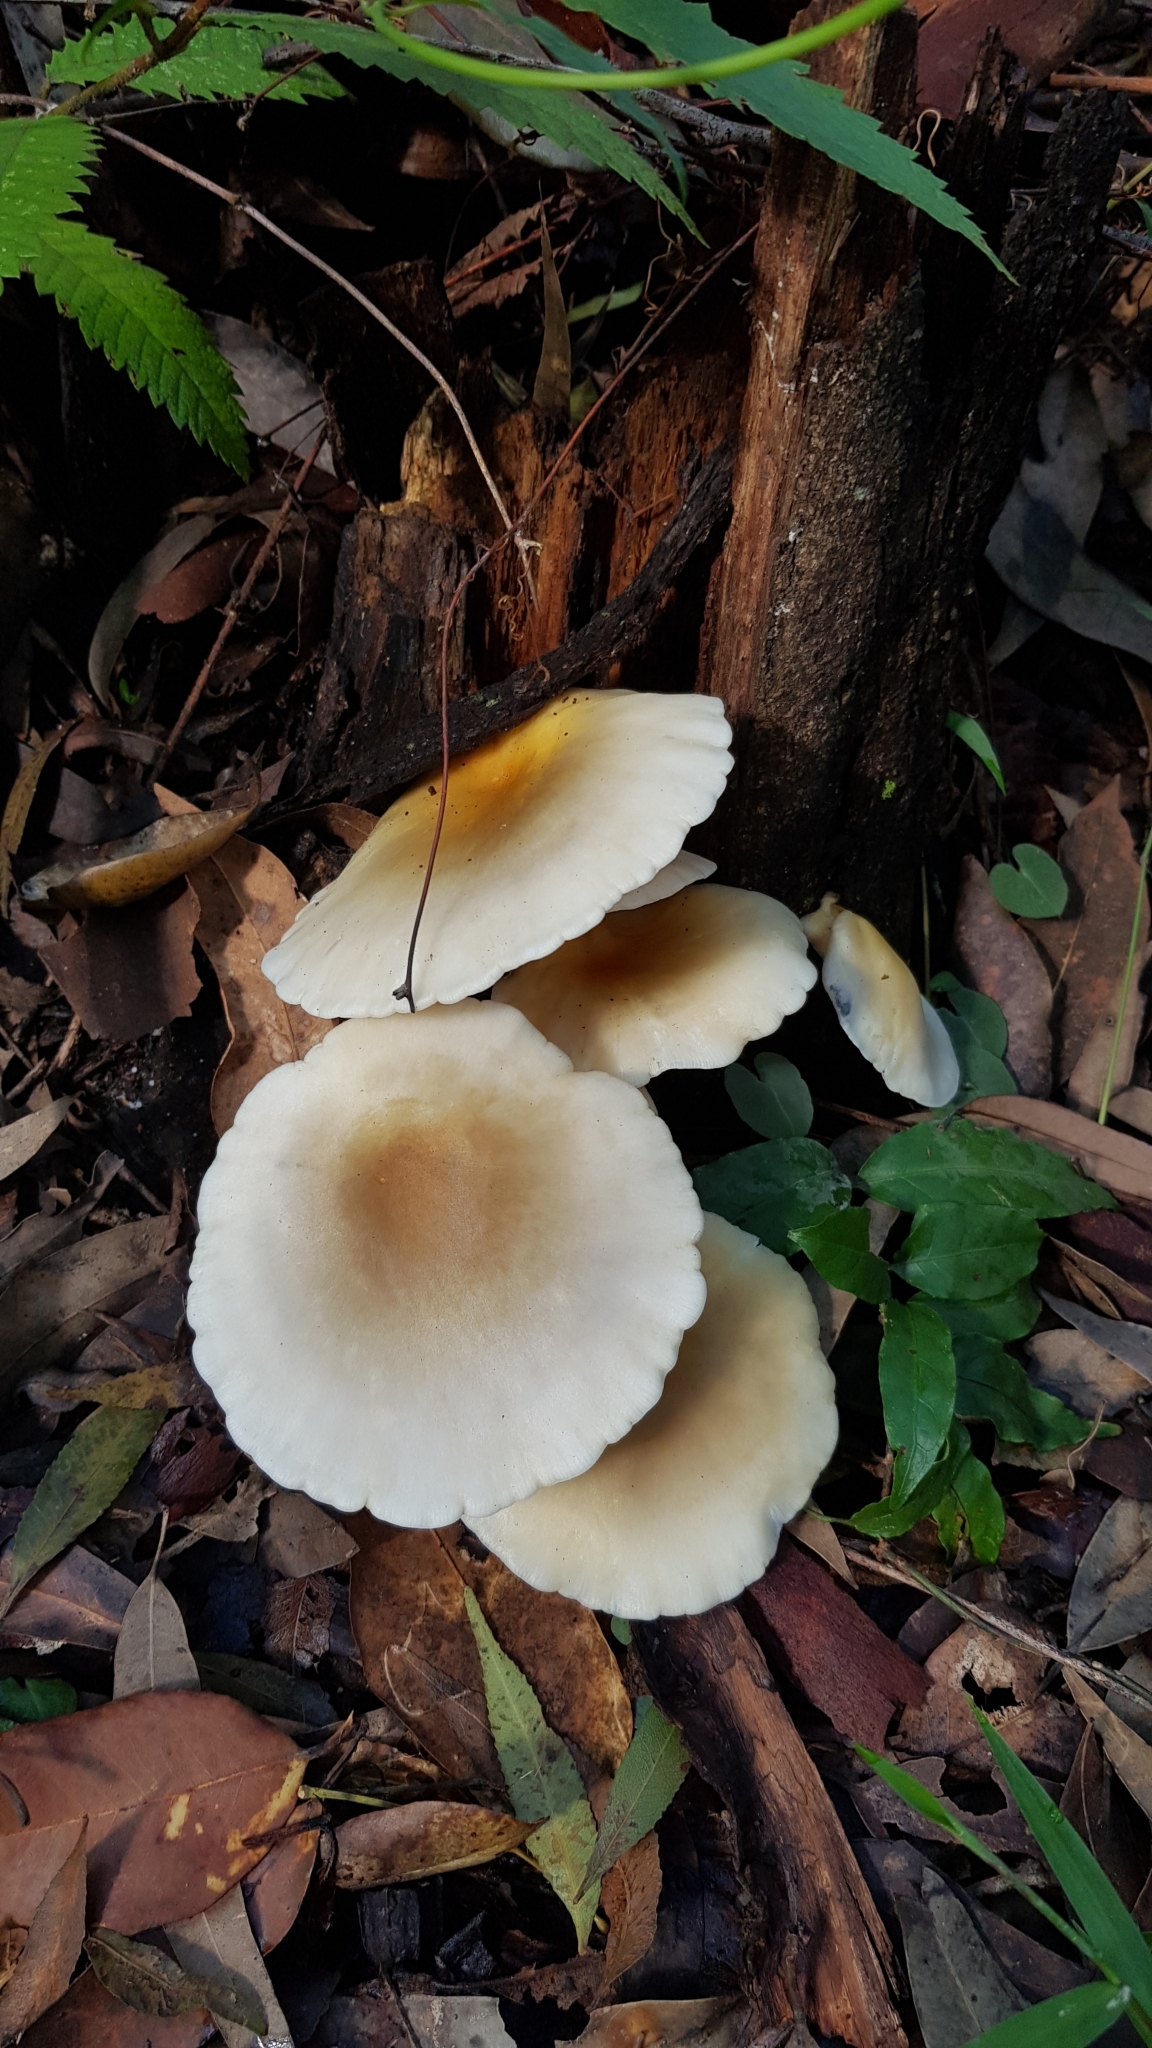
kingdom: Fungi
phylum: Basidiomycota
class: Agaricomycetes
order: Agaricales
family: Omphalotaceae
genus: Omphalotus
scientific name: Omphalotus nidiformis
